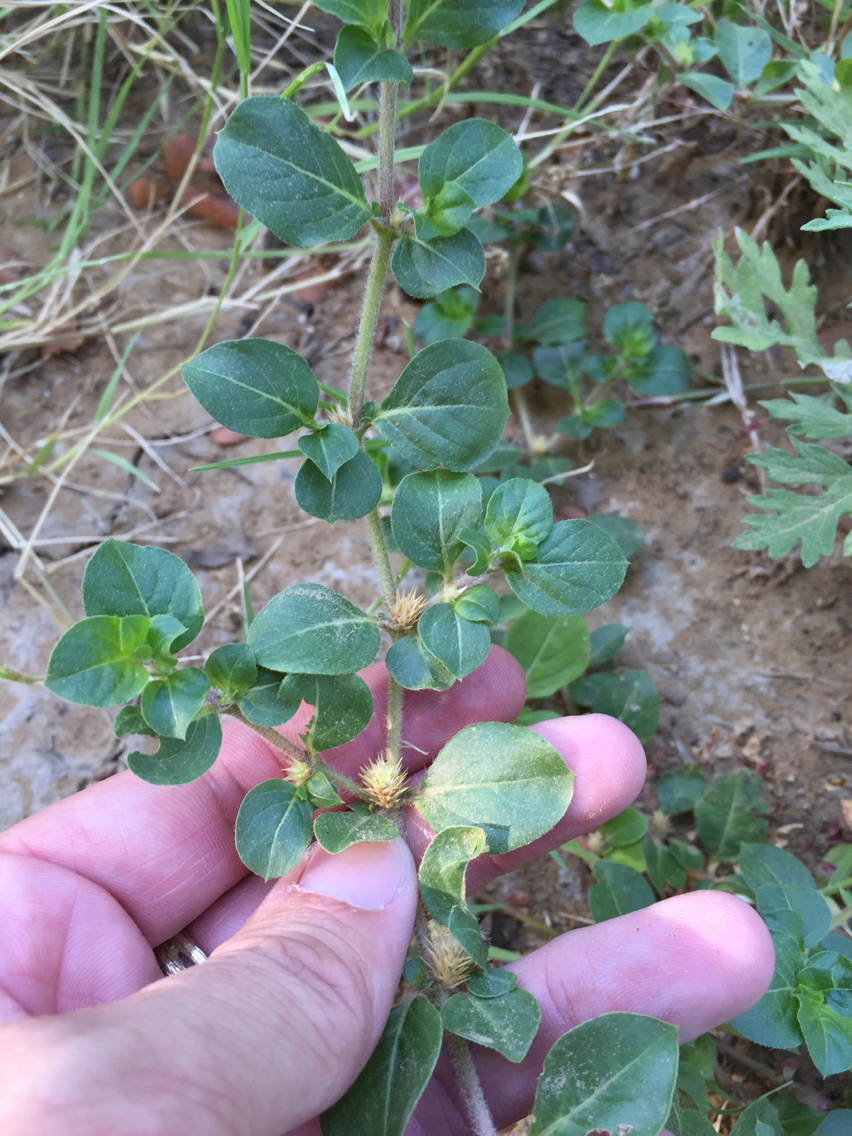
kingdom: Plantae
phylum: Tracheophyta
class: Magnoliopsida
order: Caryophyllales
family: Amaranthaceae
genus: Alternanthera
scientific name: Alternanthera pungens
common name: Khakiweed
